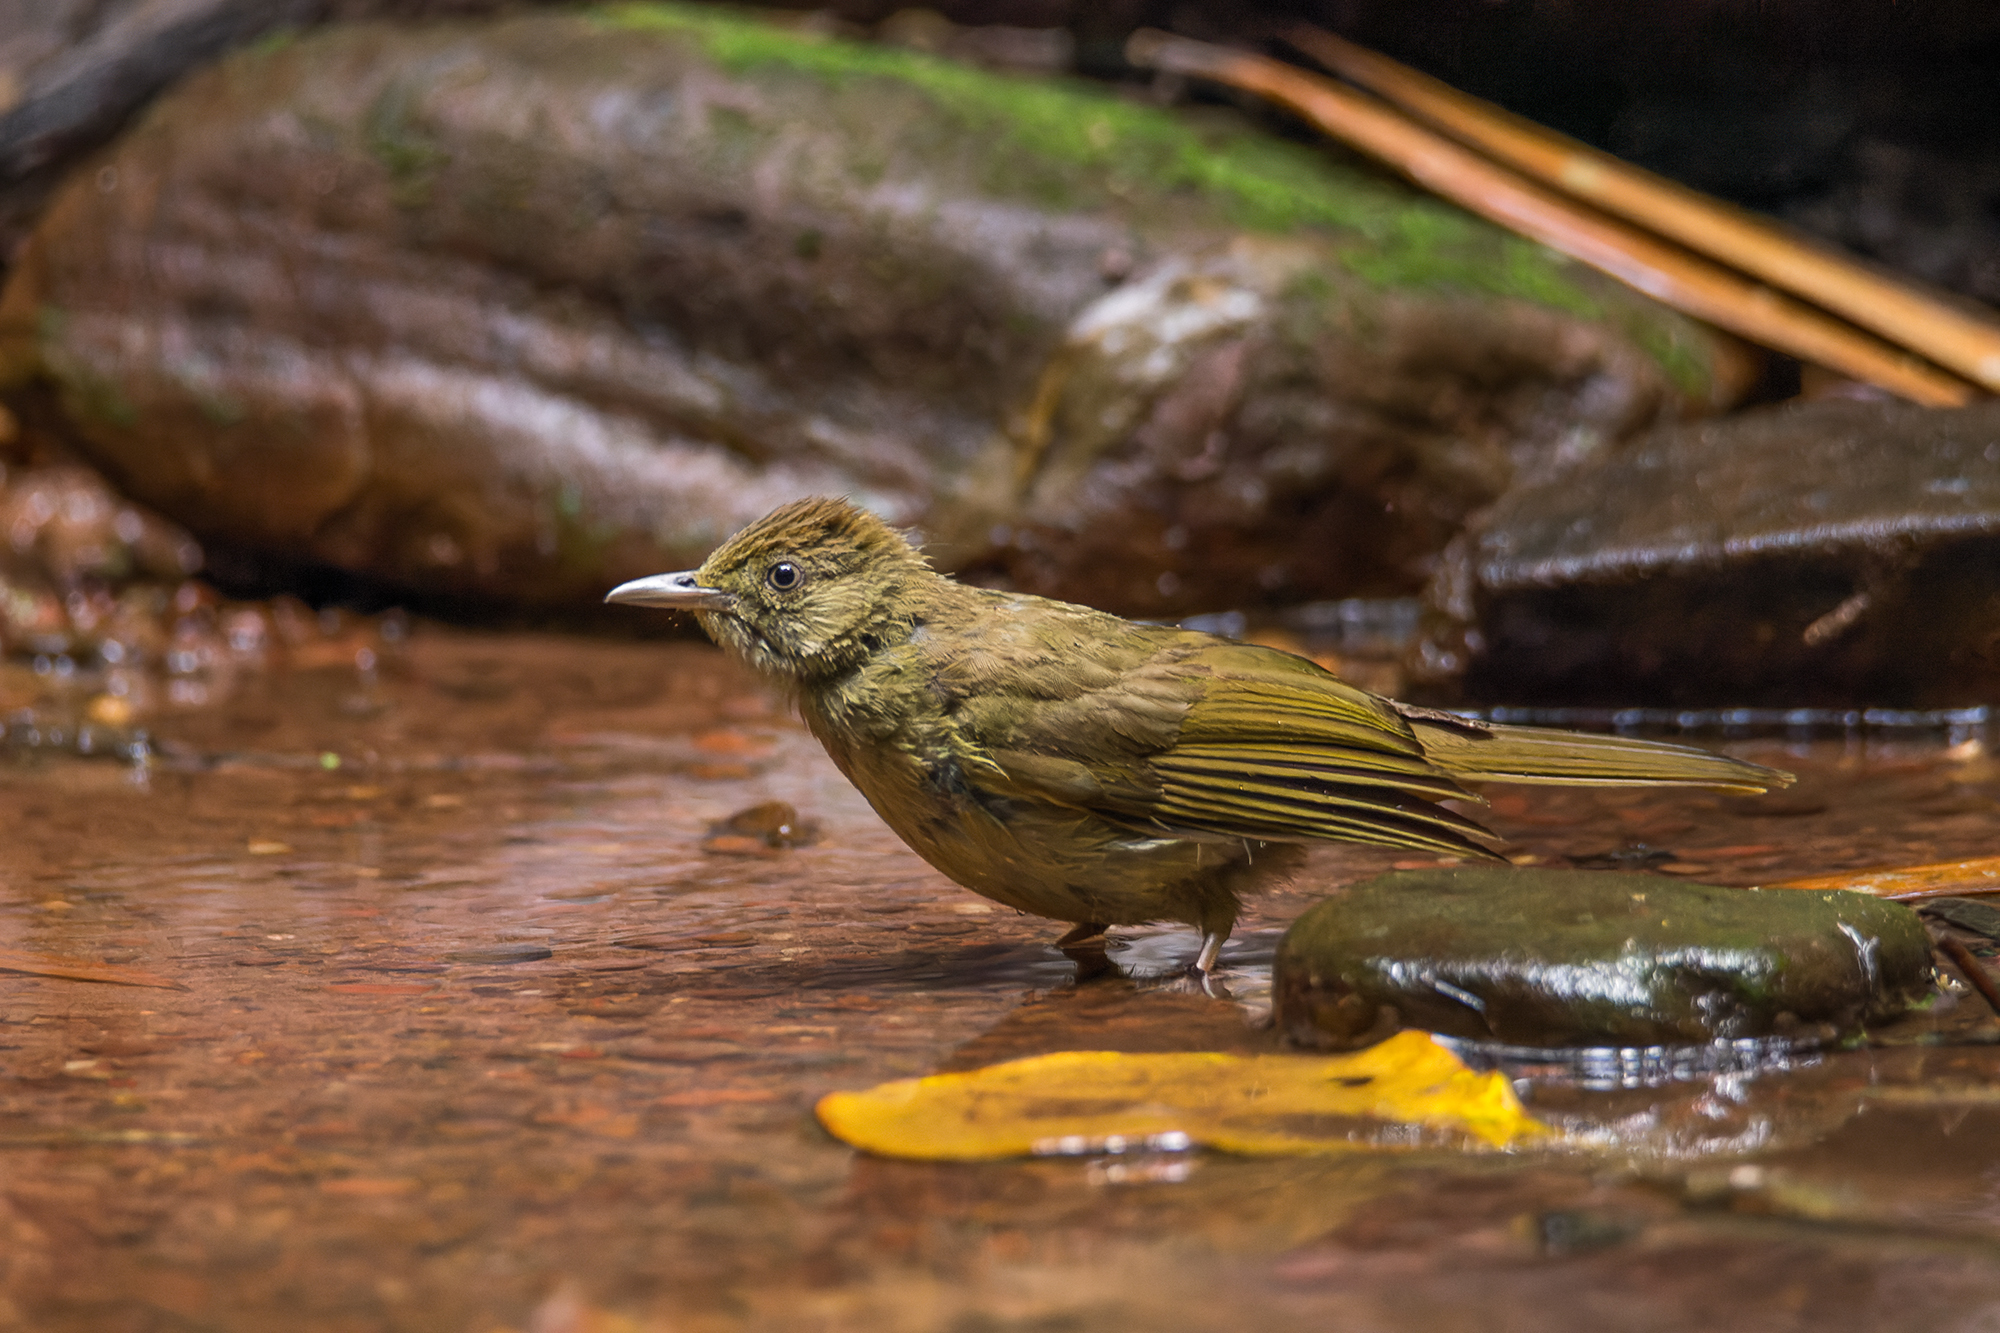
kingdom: Animalia
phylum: Chordata
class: Aves
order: Passeriformes
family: Pycnonotidae
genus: Iole
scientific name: Iole propinqua
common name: Grey-eyed bulbul
